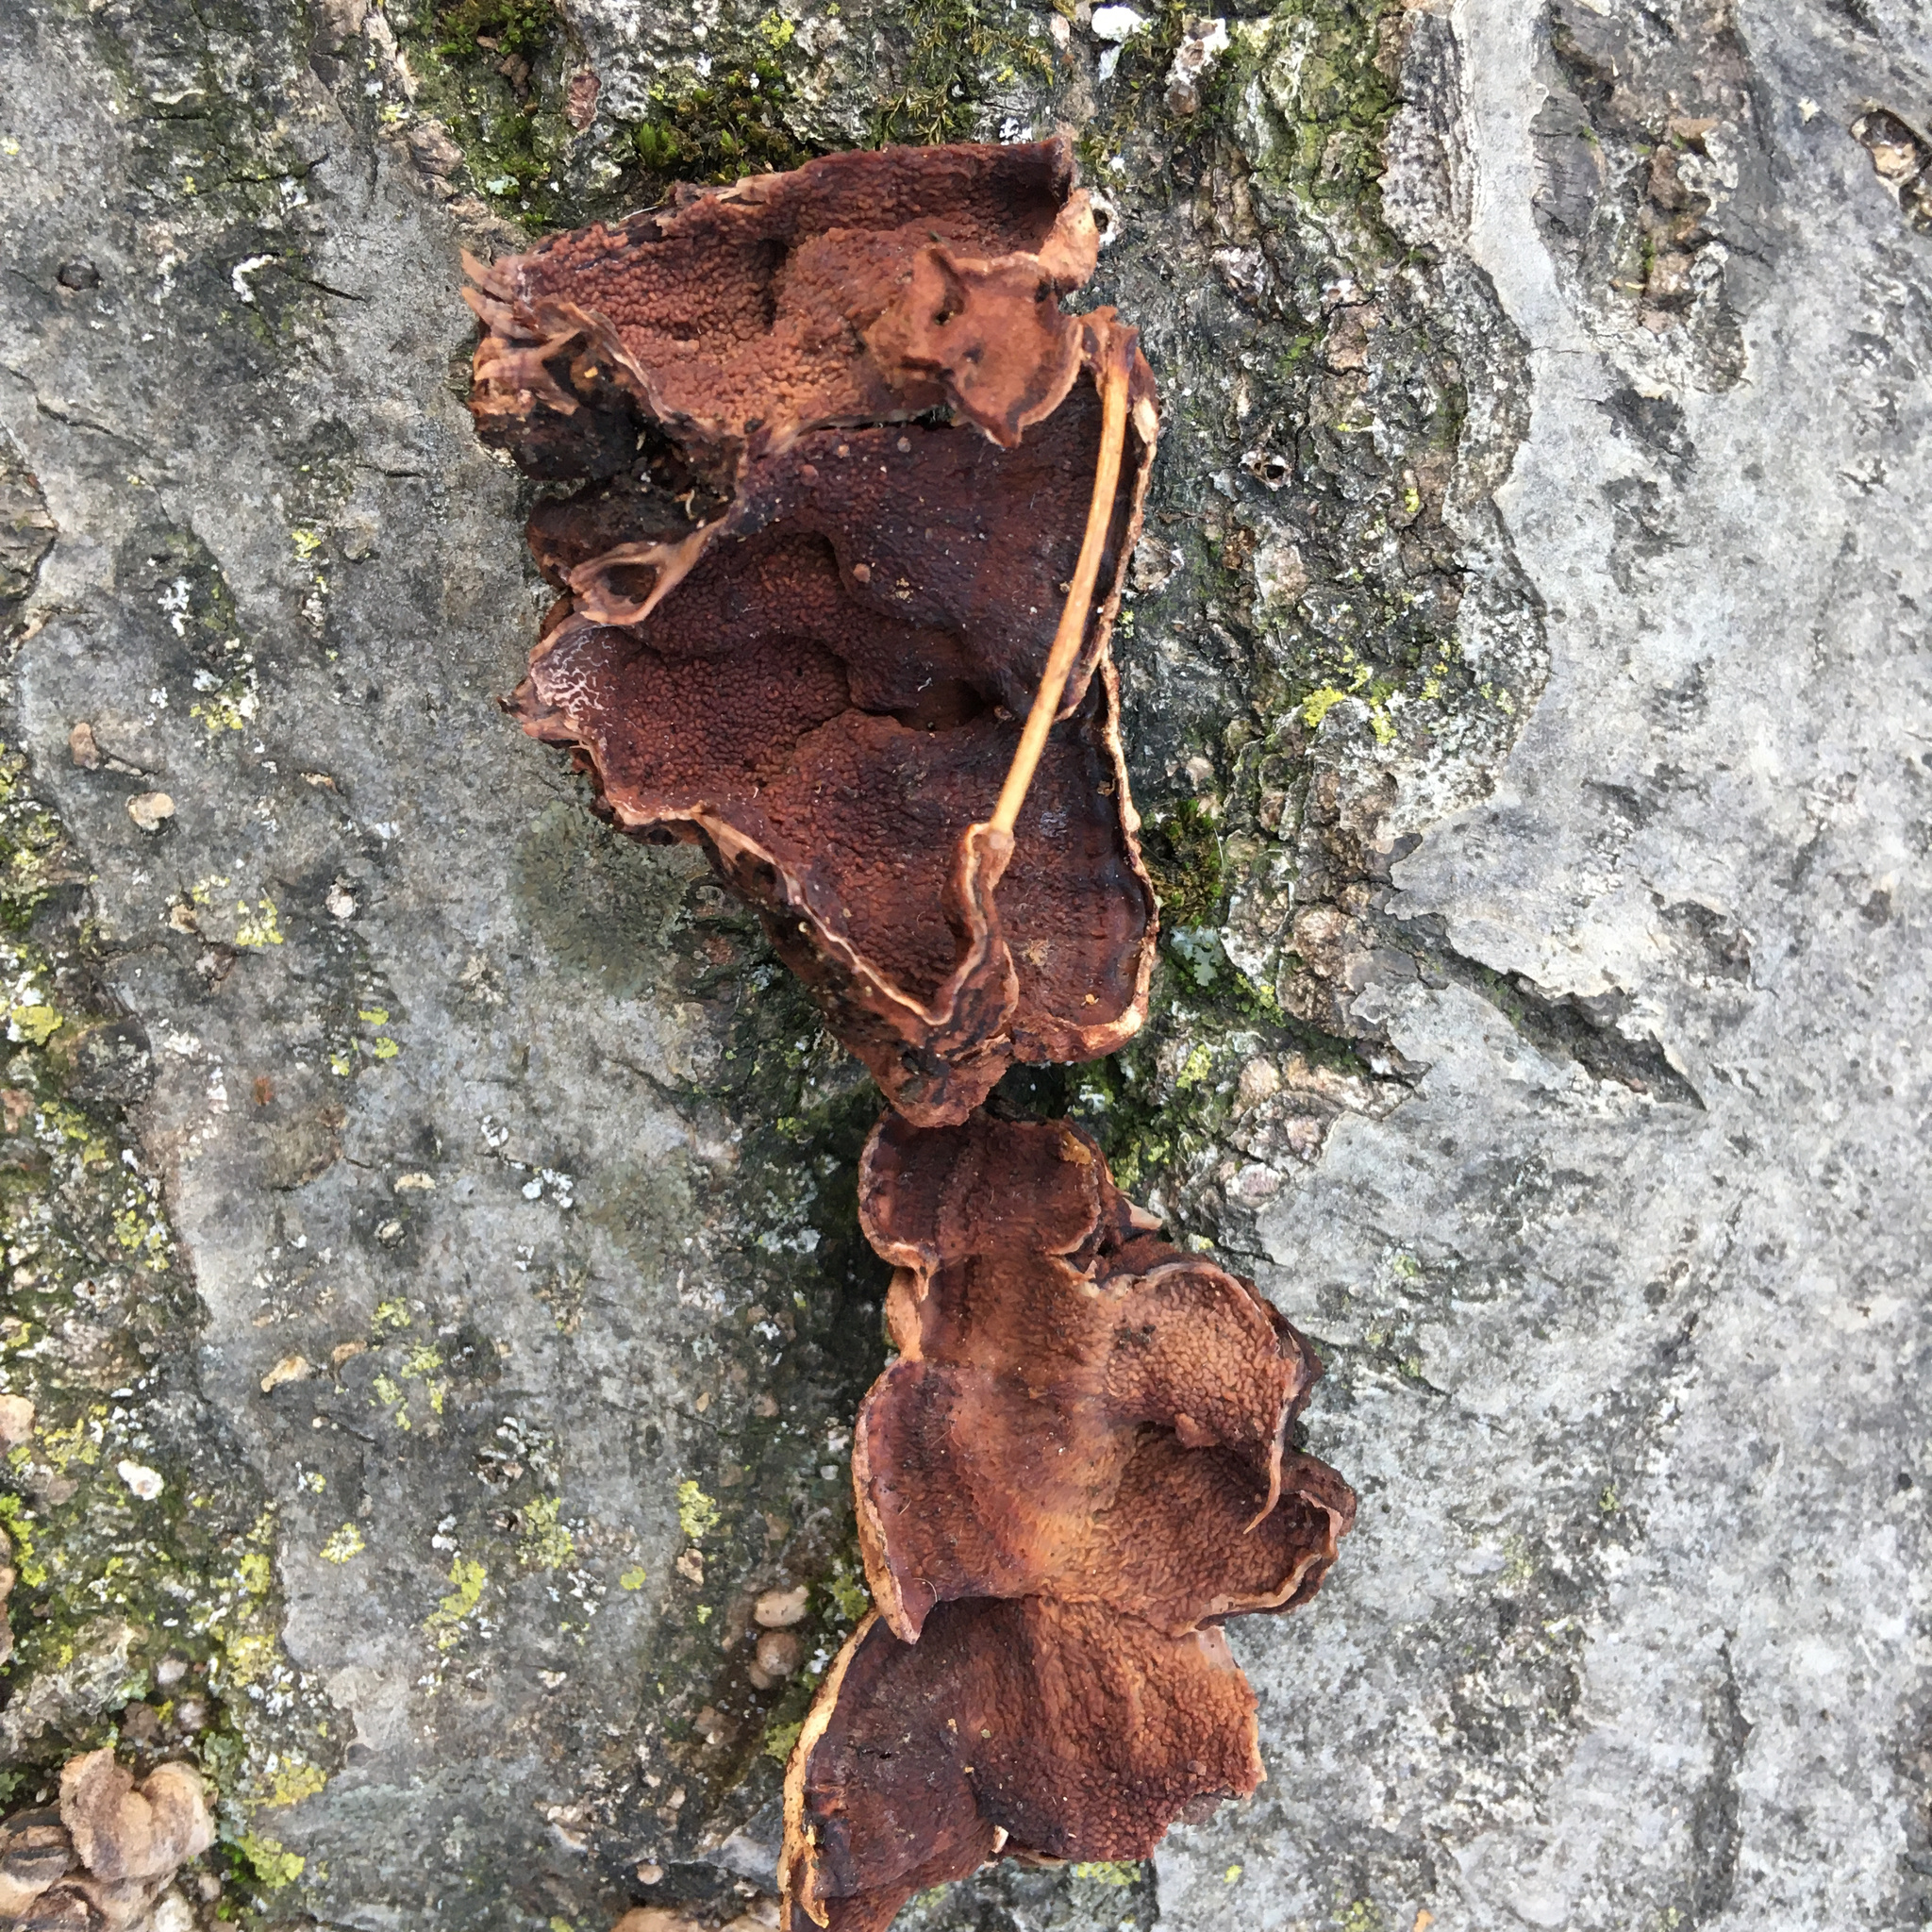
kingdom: Fungi
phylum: Basidiomycota
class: Agaricomycetes
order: Corticiales
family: Punctulariaceae
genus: Punctularia
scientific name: Punctularia strigosozonata
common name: White-rot fungus
